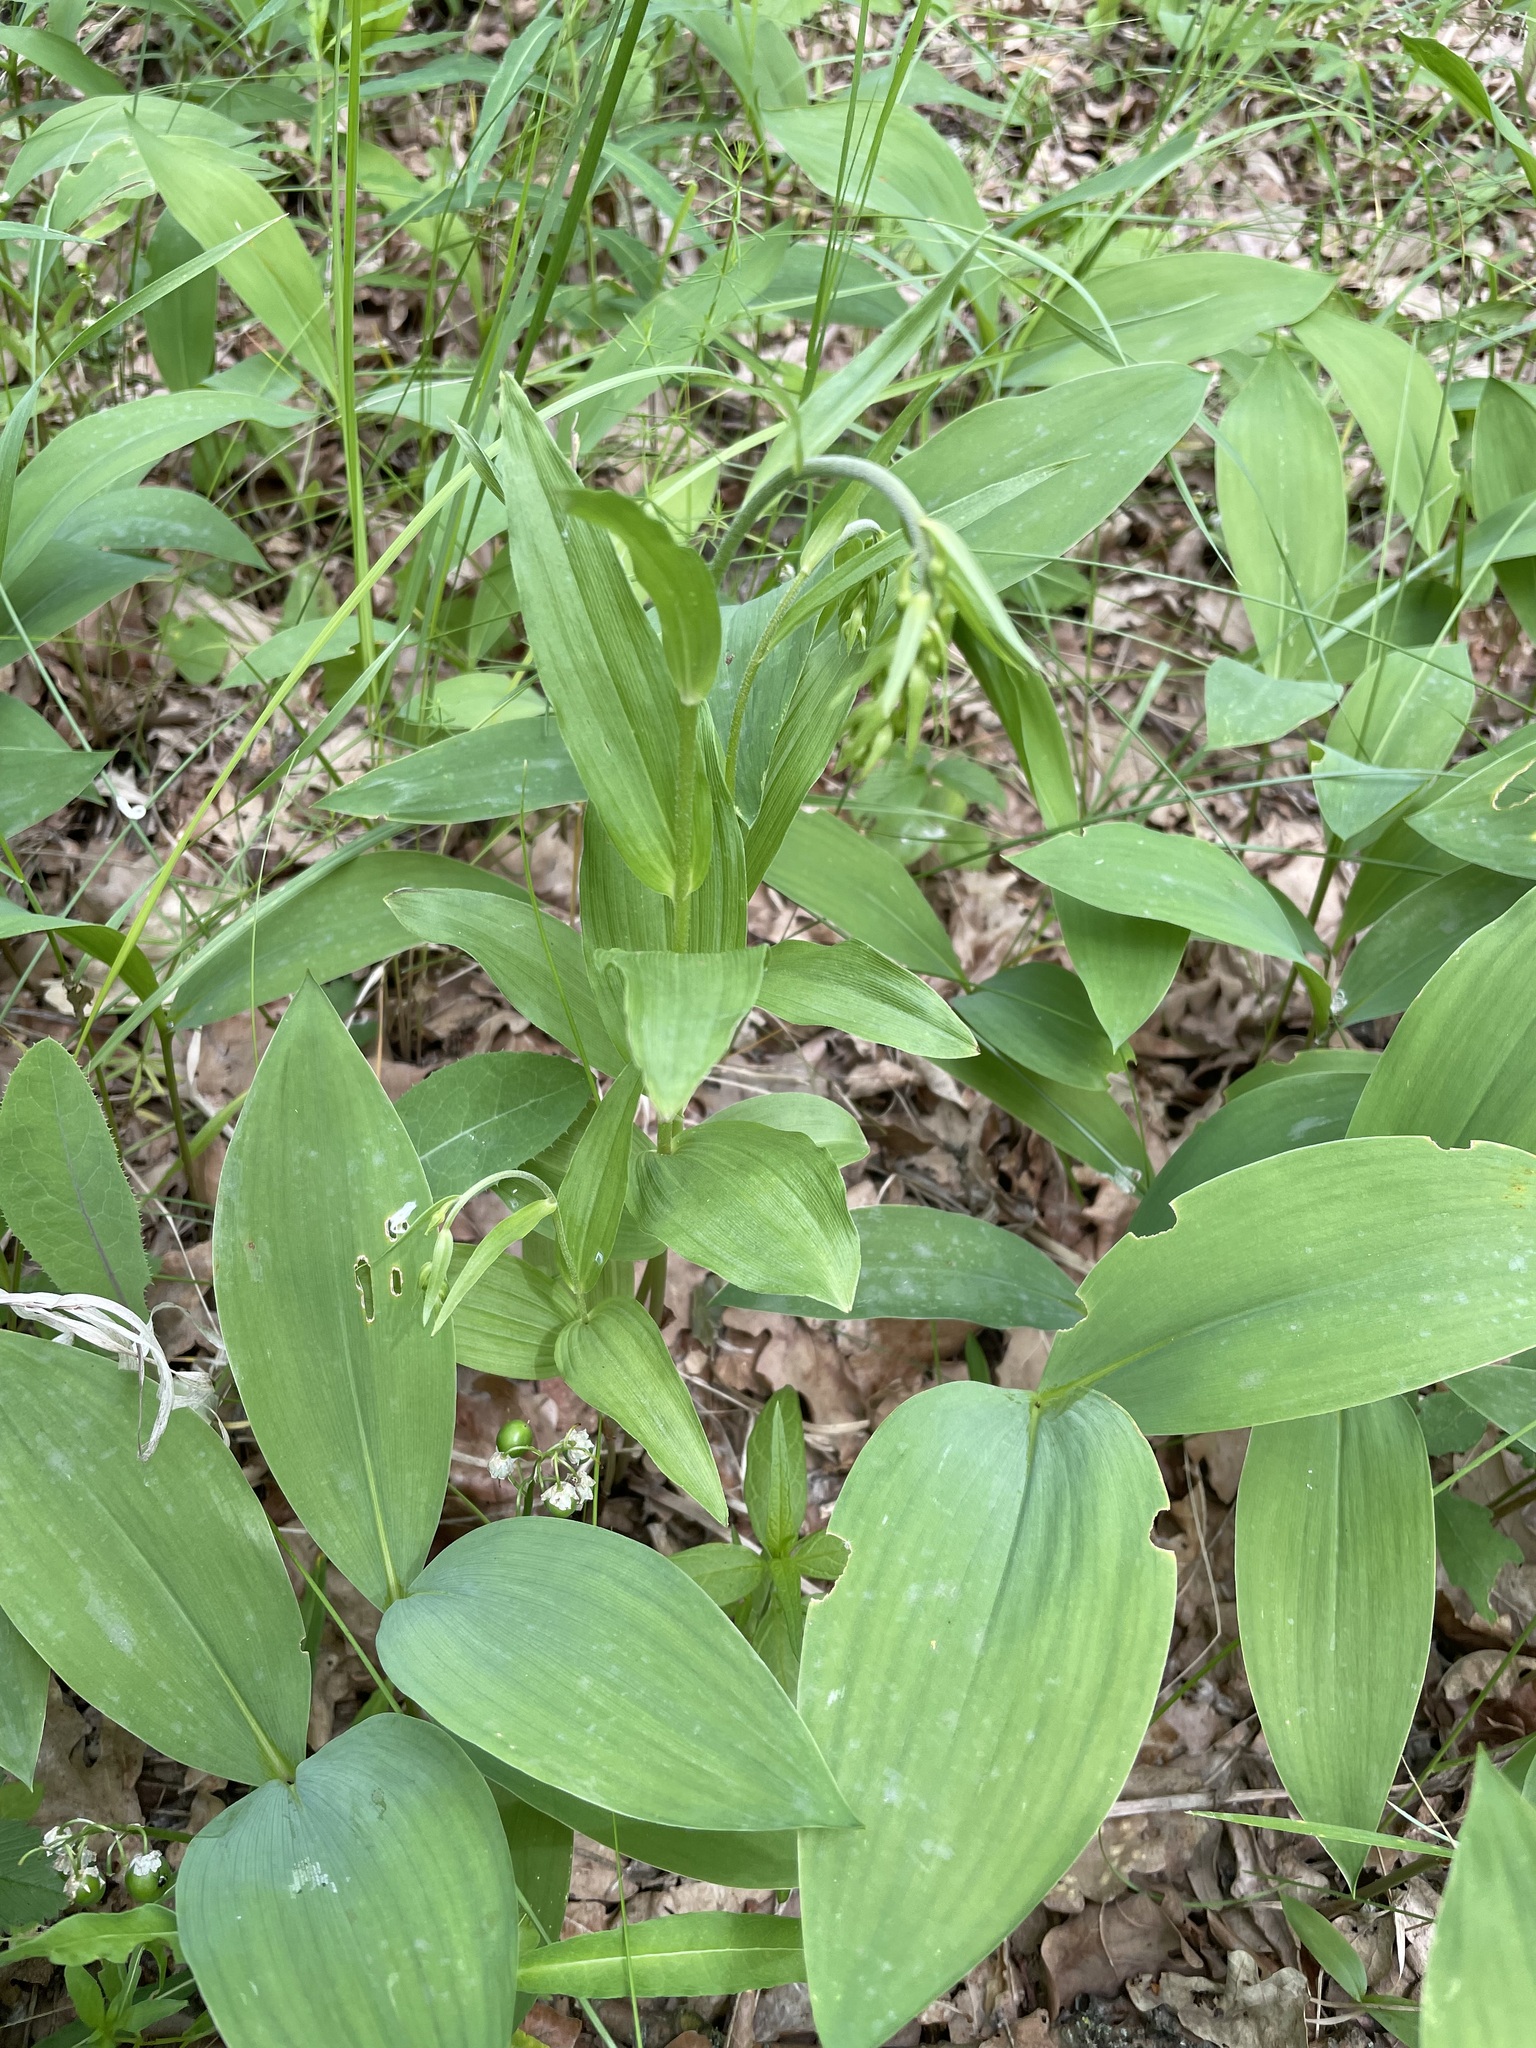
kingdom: Plantae
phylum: Tracheophyta
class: Liliopsida
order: Asparagales
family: Orchidaceae
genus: Epipactis
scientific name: Epipactis helleborine
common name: Broad-leaved helleborine
